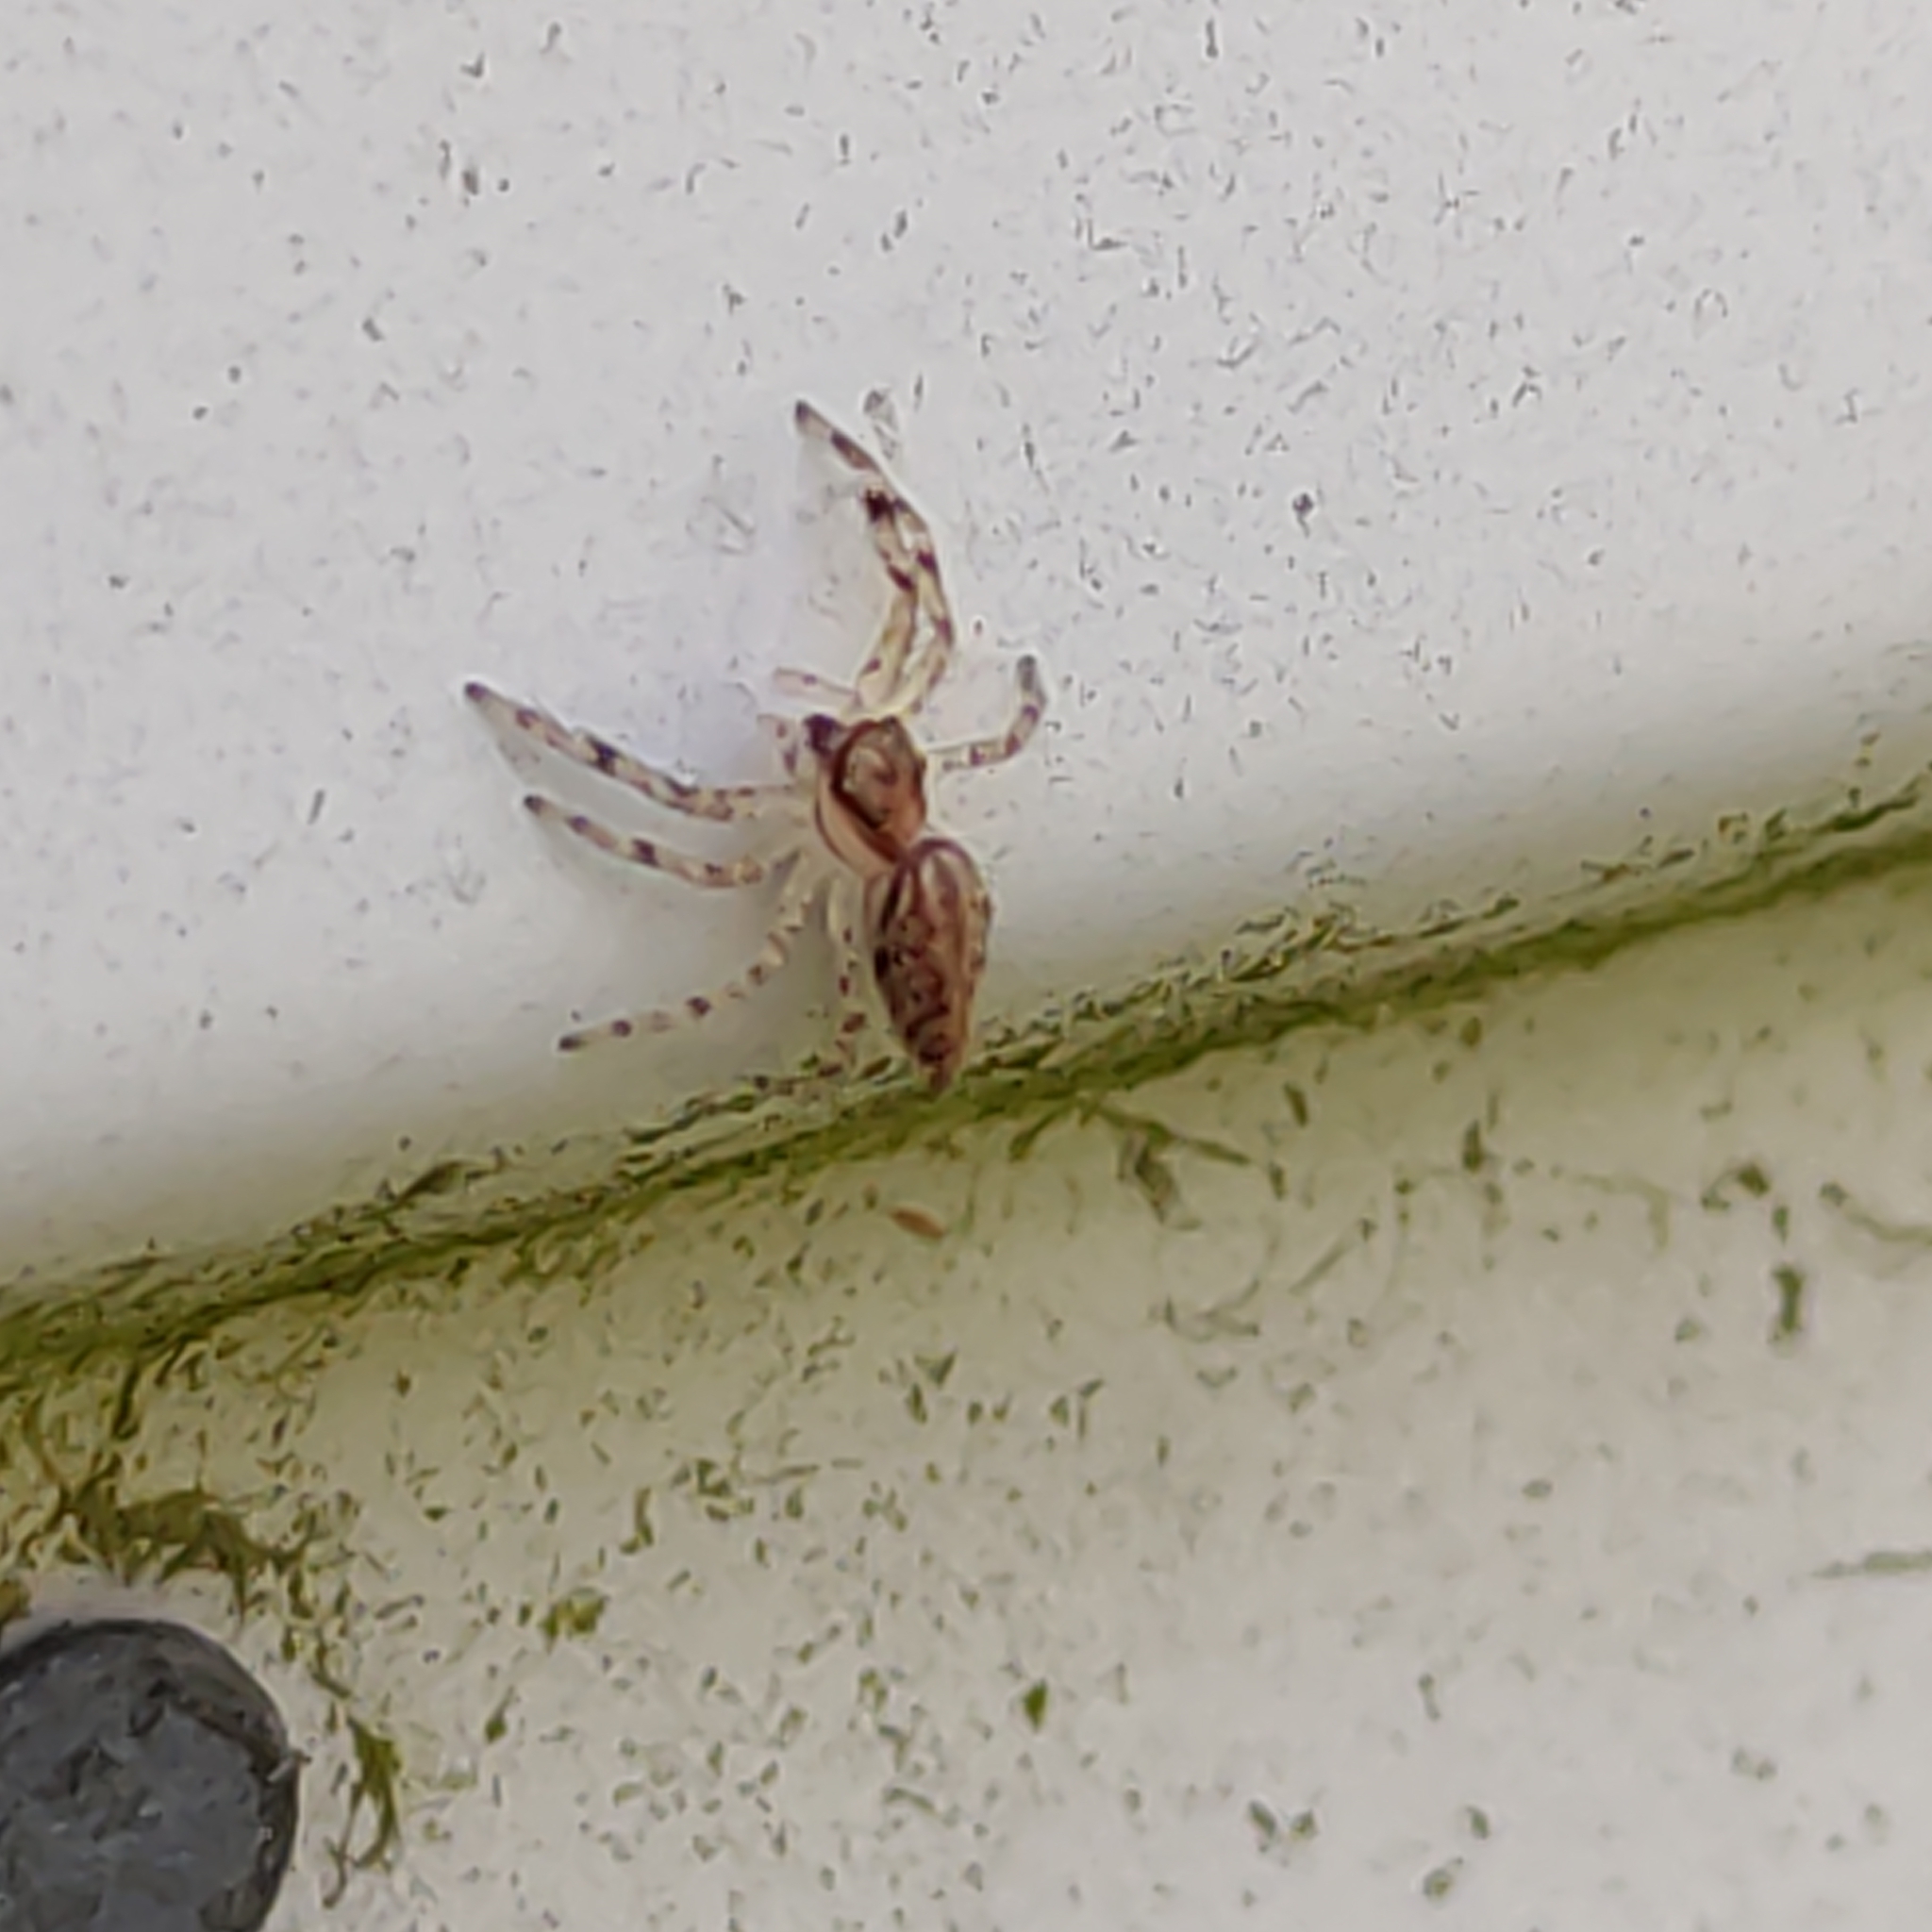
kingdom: Animalia
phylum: Arthropoda
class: Arachnida
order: Araneae
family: Salticidae
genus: Helpis
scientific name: Helpis minitabunda
